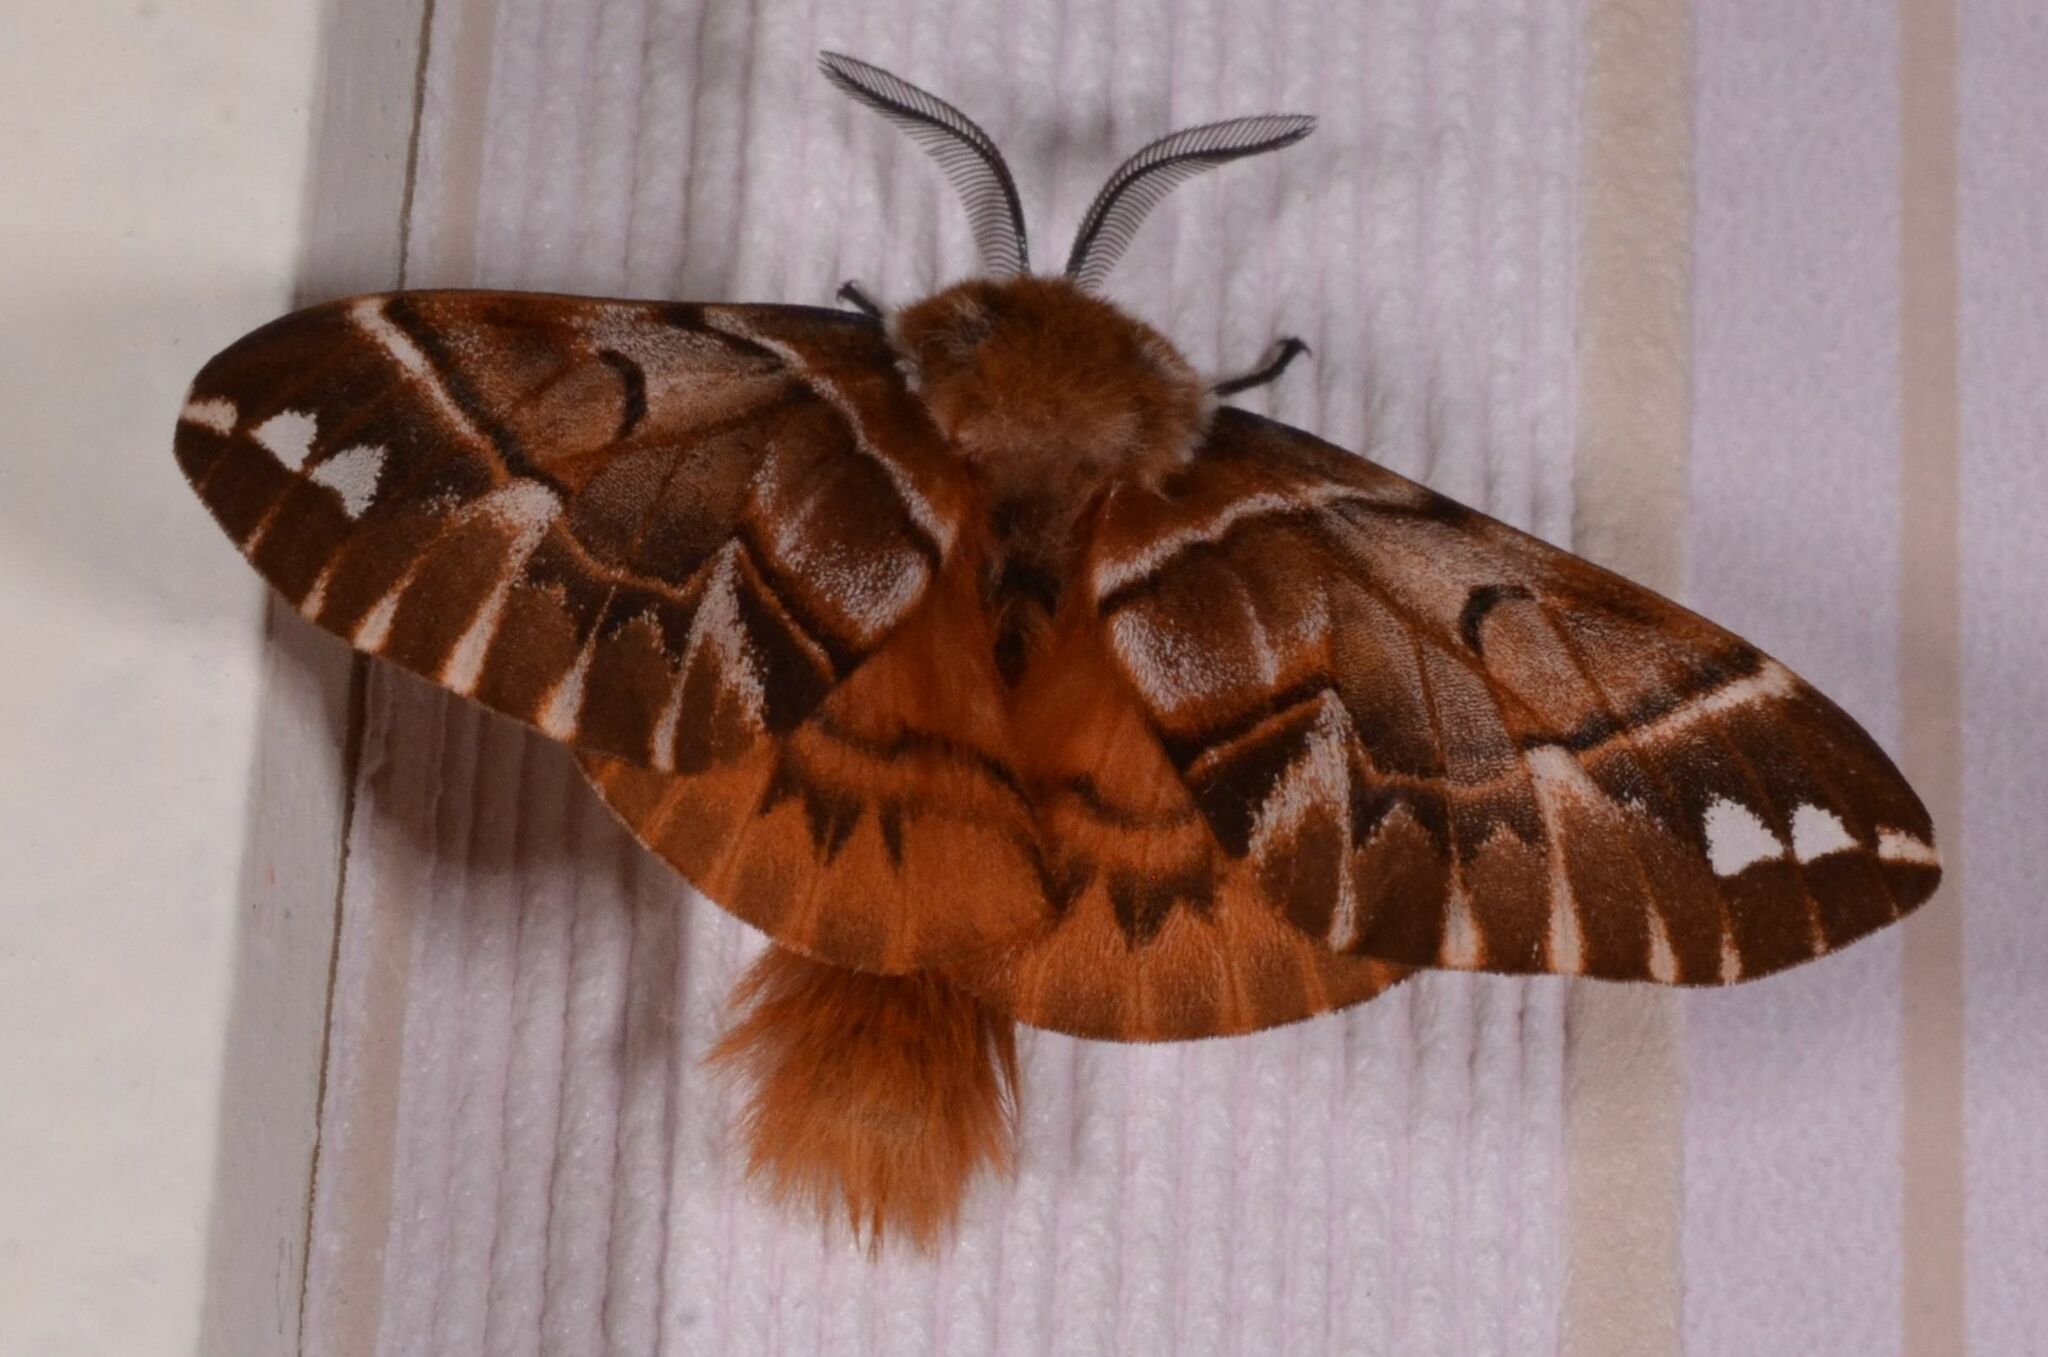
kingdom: Animalia
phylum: Arthropoda
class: Insecta
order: Lepidoptera
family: Endromidae
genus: Endromis
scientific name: Endromis versicolora
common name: Kentish glory
